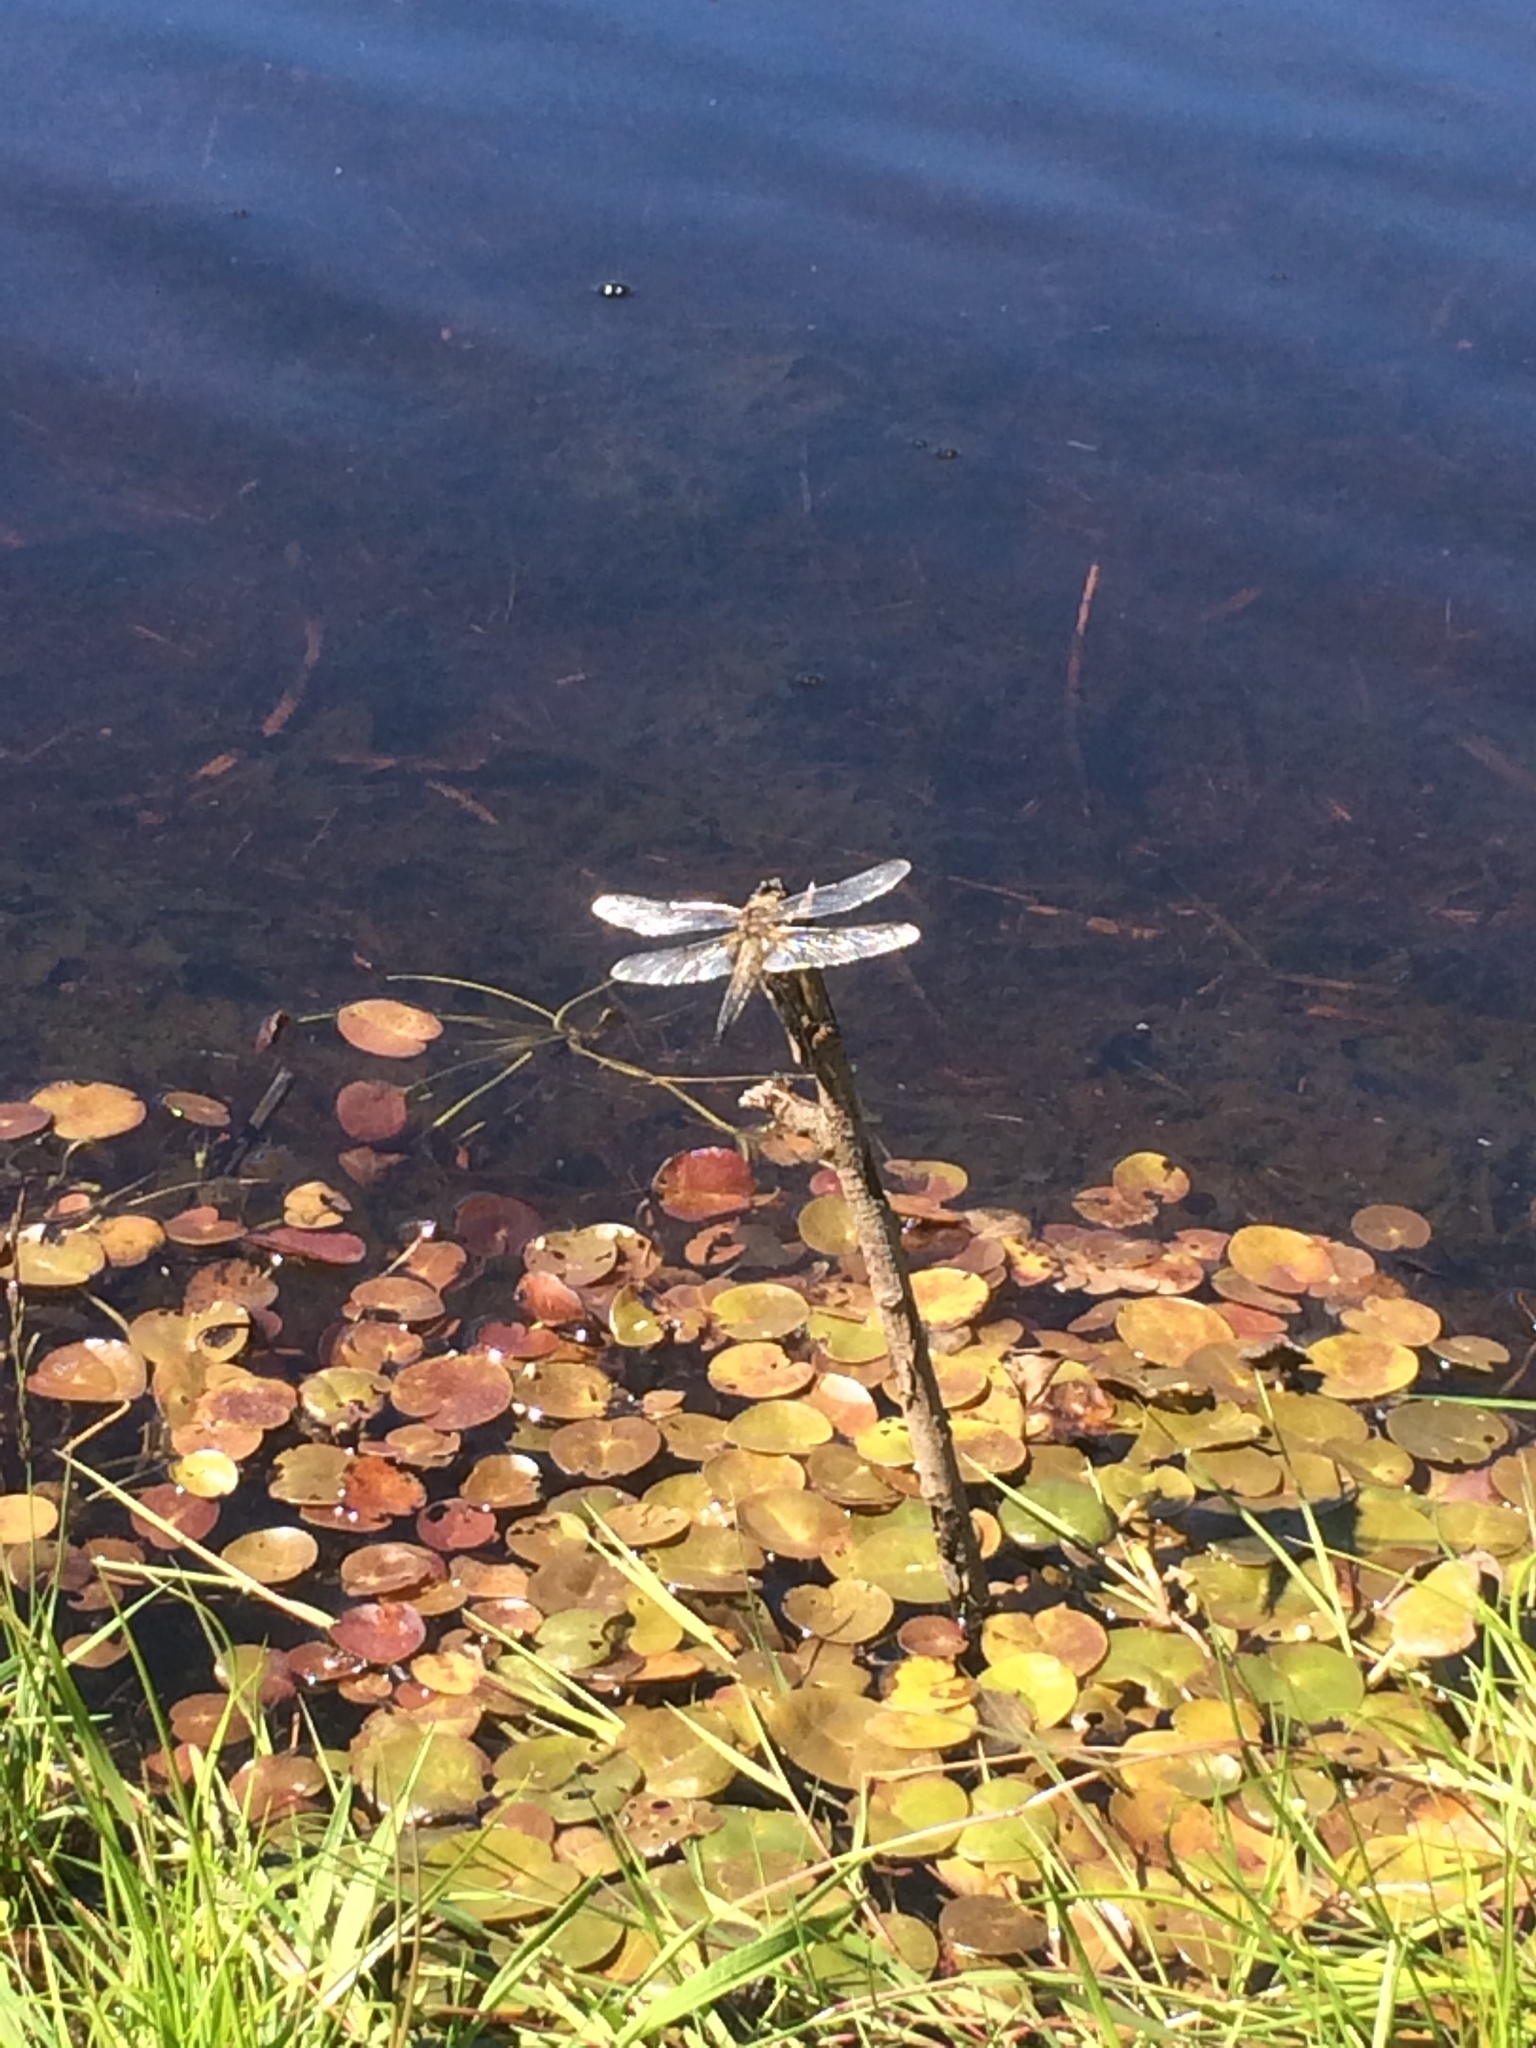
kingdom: Animalia
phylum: Arthropoda
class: Insecta
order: Odonata
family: Libellulidae
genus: Libellula
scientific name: Libellula quadrimaculata
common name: Four-spotted chaser
